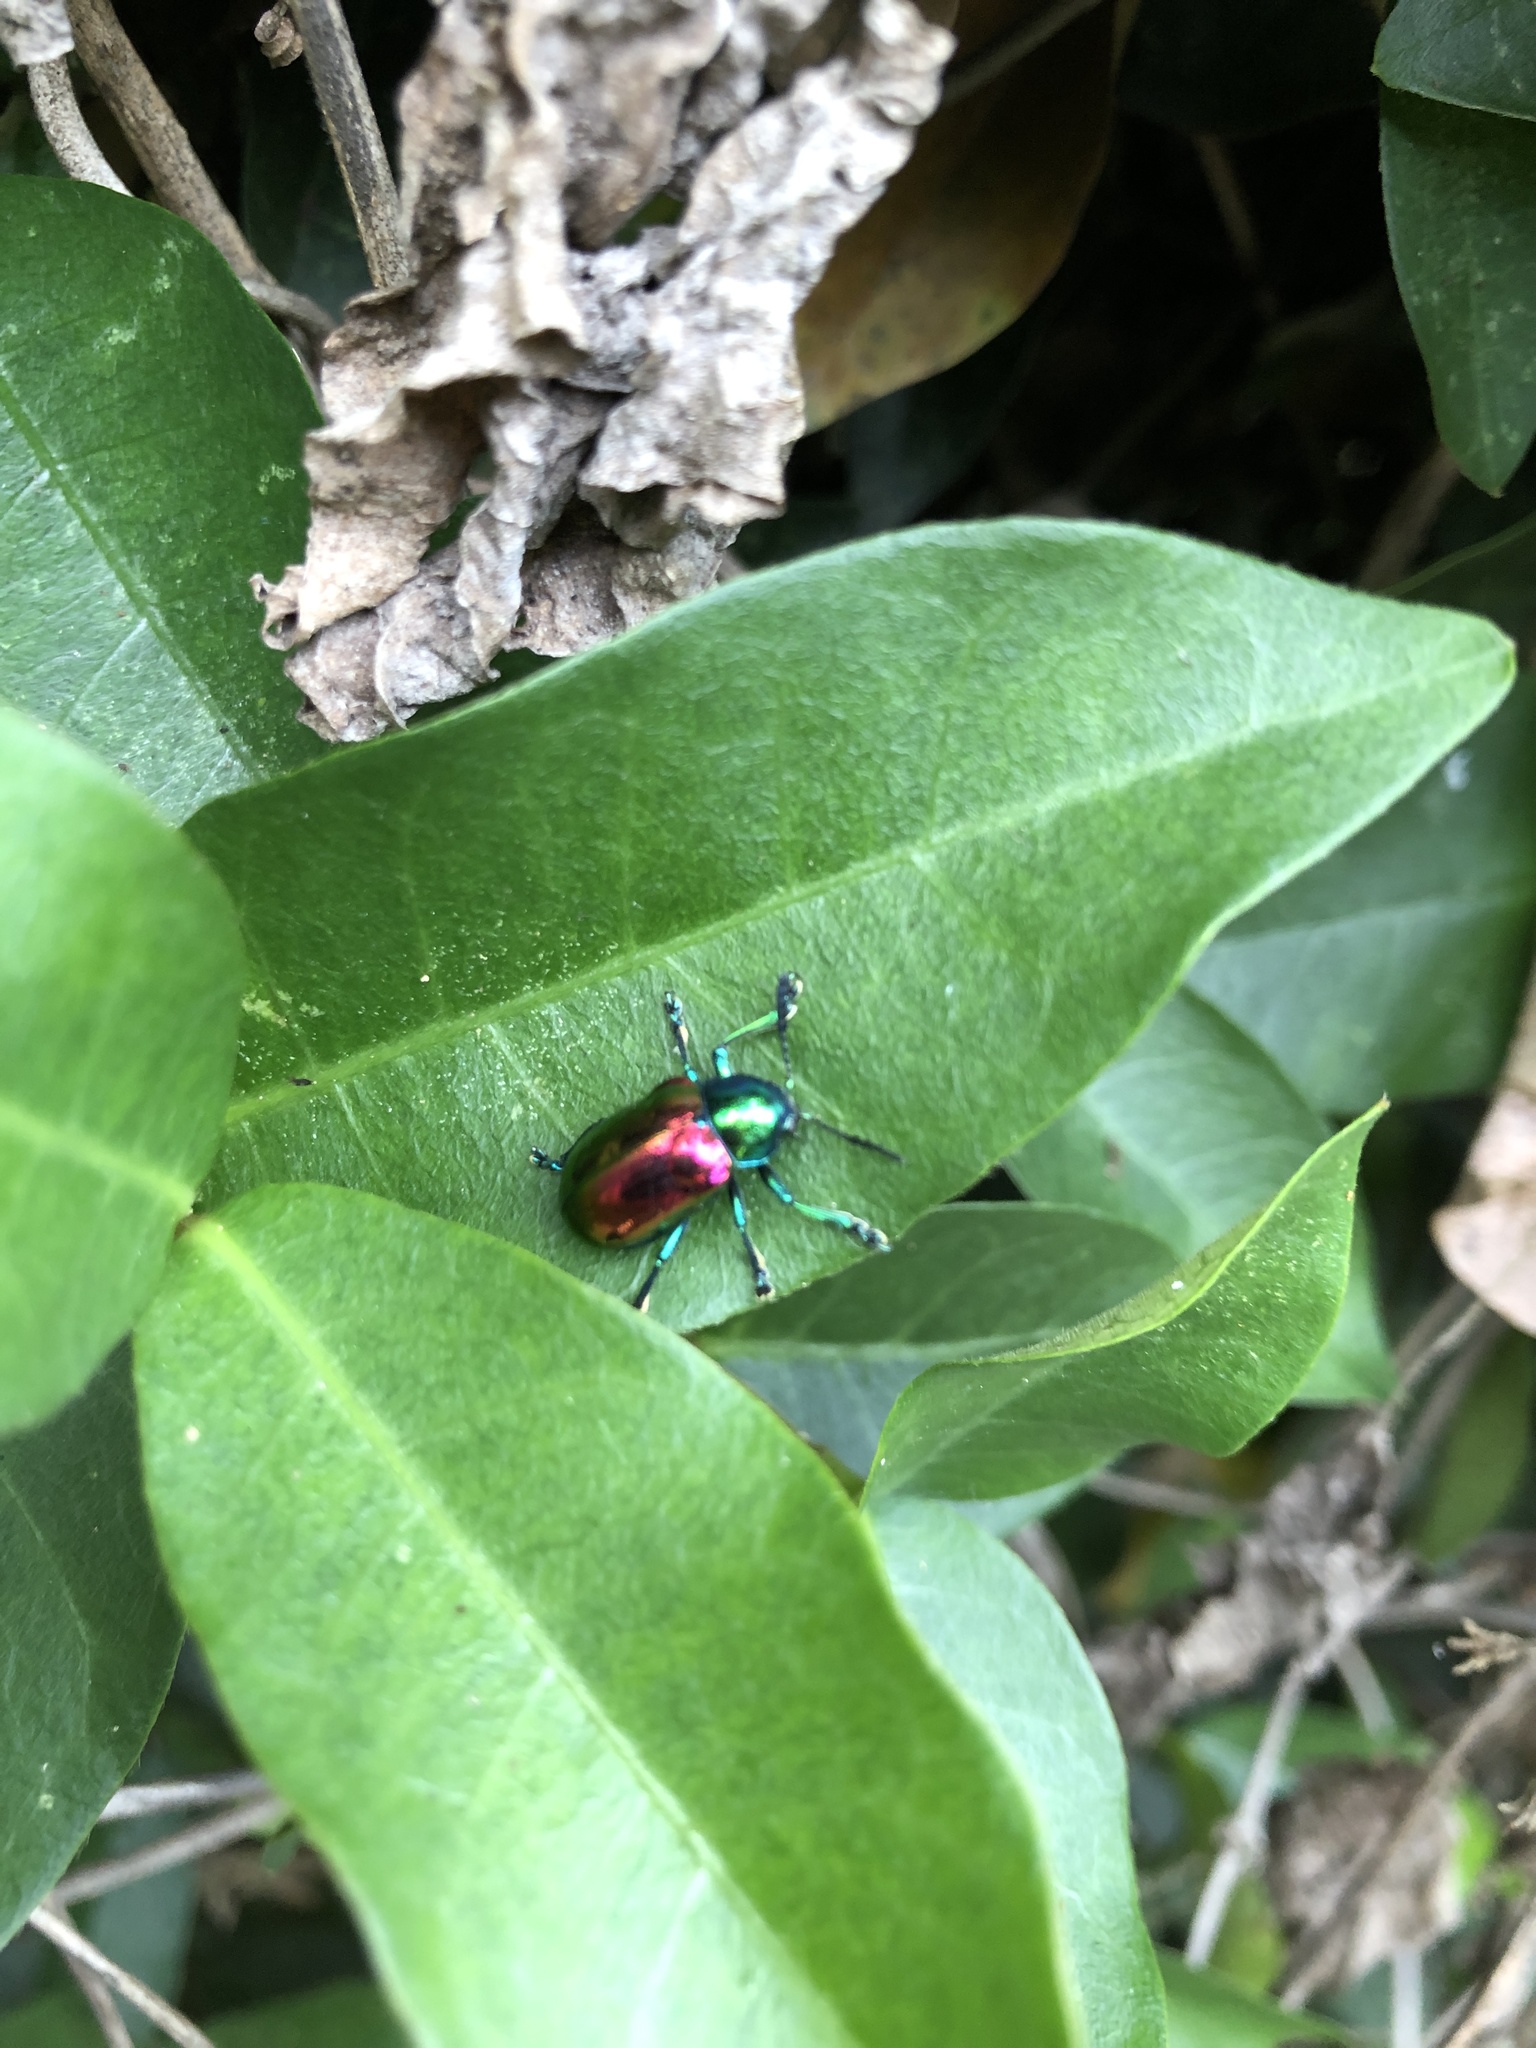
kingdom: Animalia
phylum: Arthropoda
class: Insecta
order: Coleoptera
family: Chrysomelidae
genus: Platycorynus
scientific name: Platycorynus sauteri
